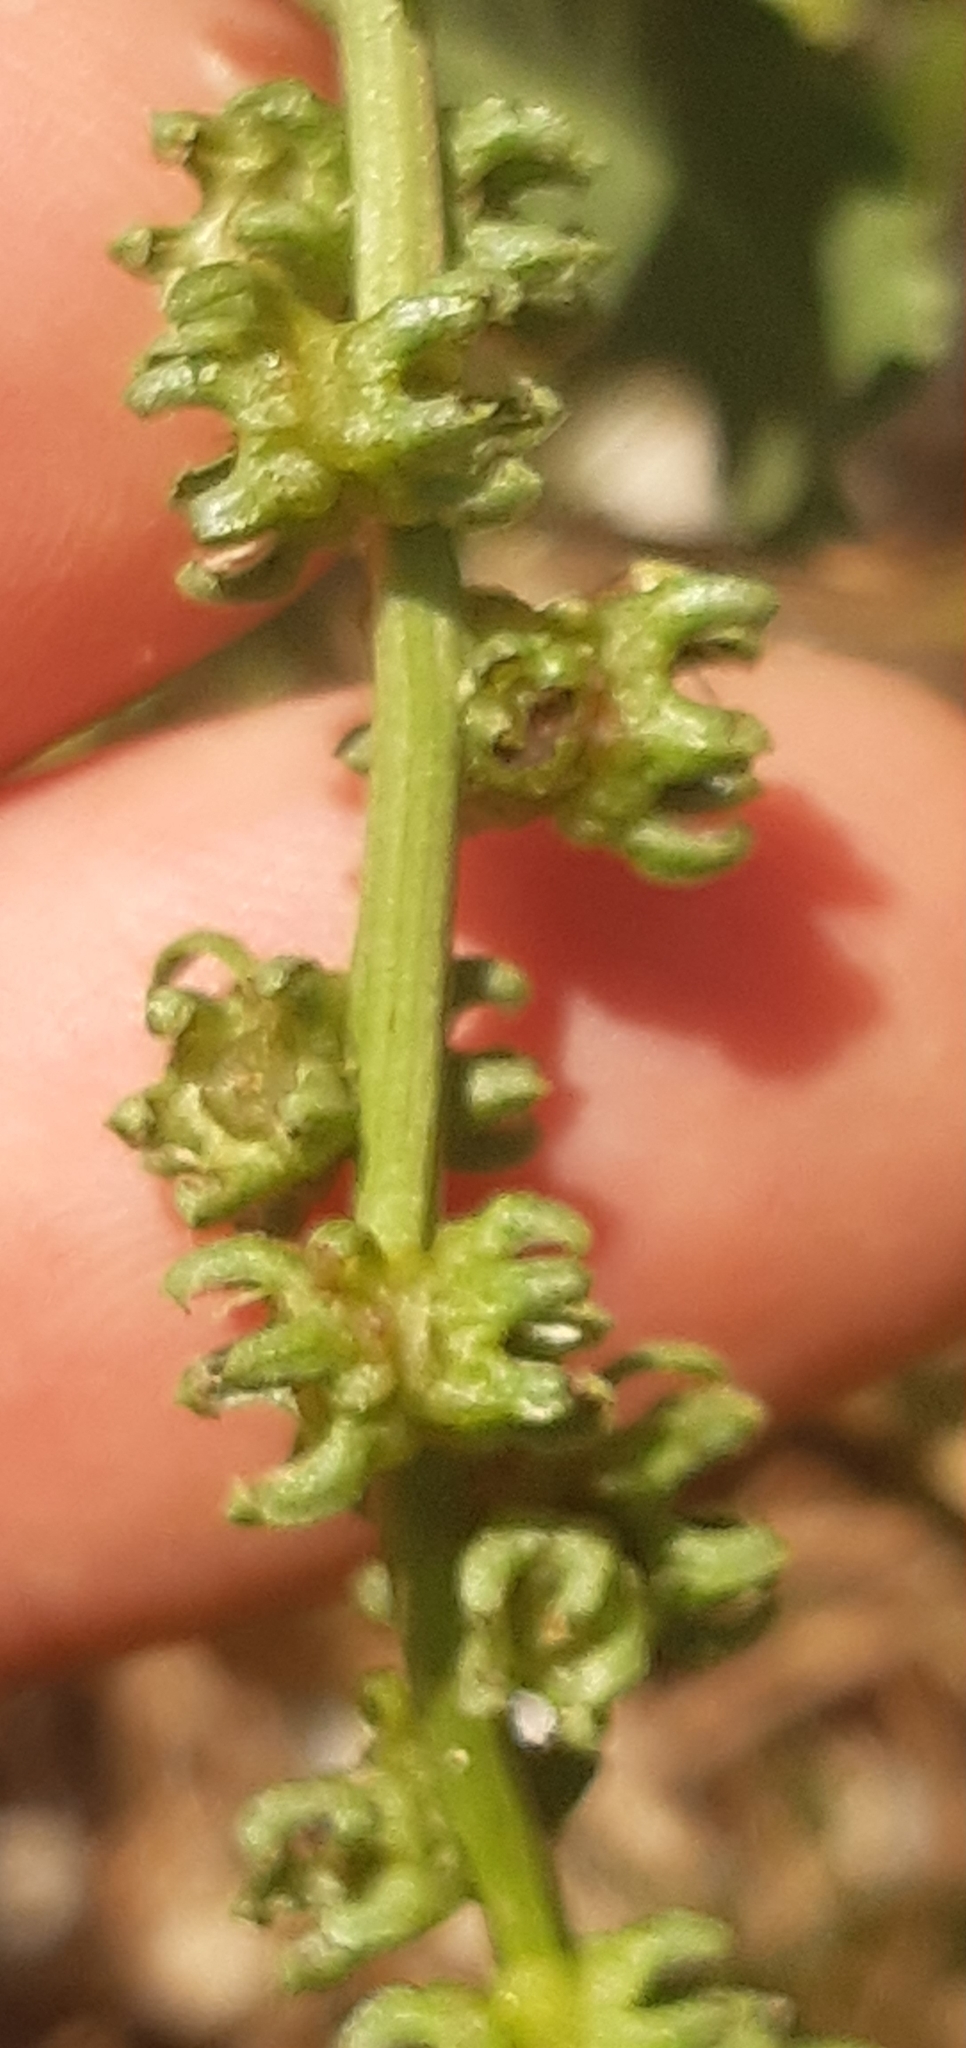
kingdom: Plantae
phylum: Tracheophyta
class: Magnoliopsida
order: Caryophyllales
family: Amaranthaceae
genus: Beta
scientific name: Beta vulgaris
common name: Beet
